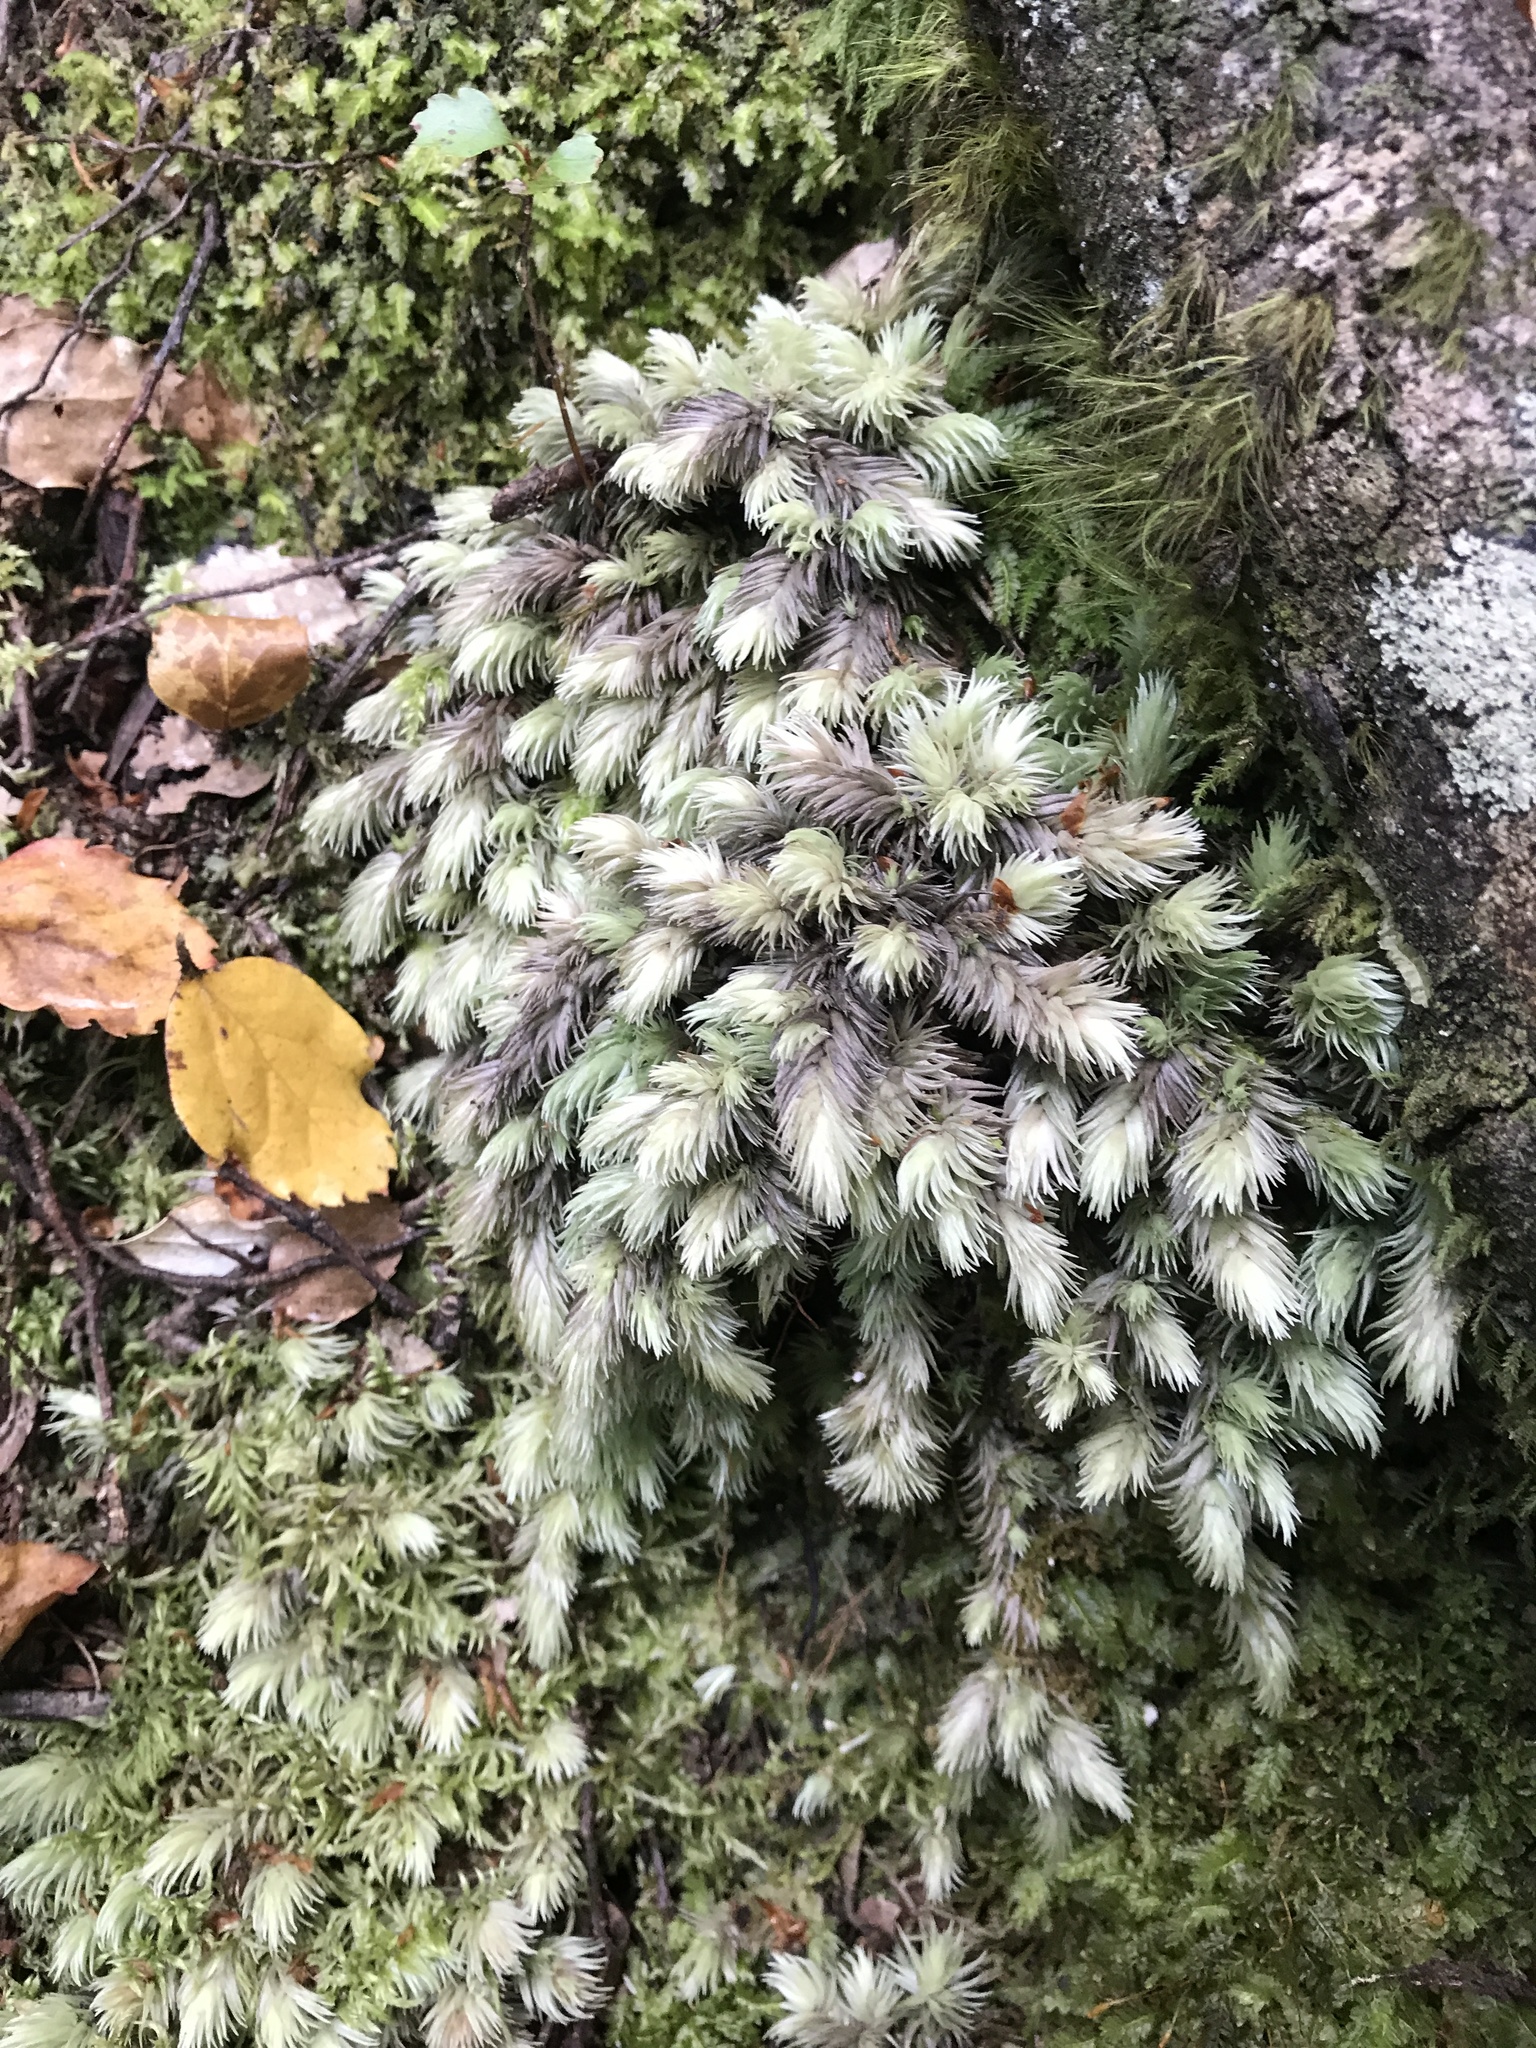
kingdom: Plantae
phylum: Bryophyta
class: Bryopsida
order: Dicranales
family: Leucobryaceae
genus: Leucobryum
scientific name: Leucobryum javense
